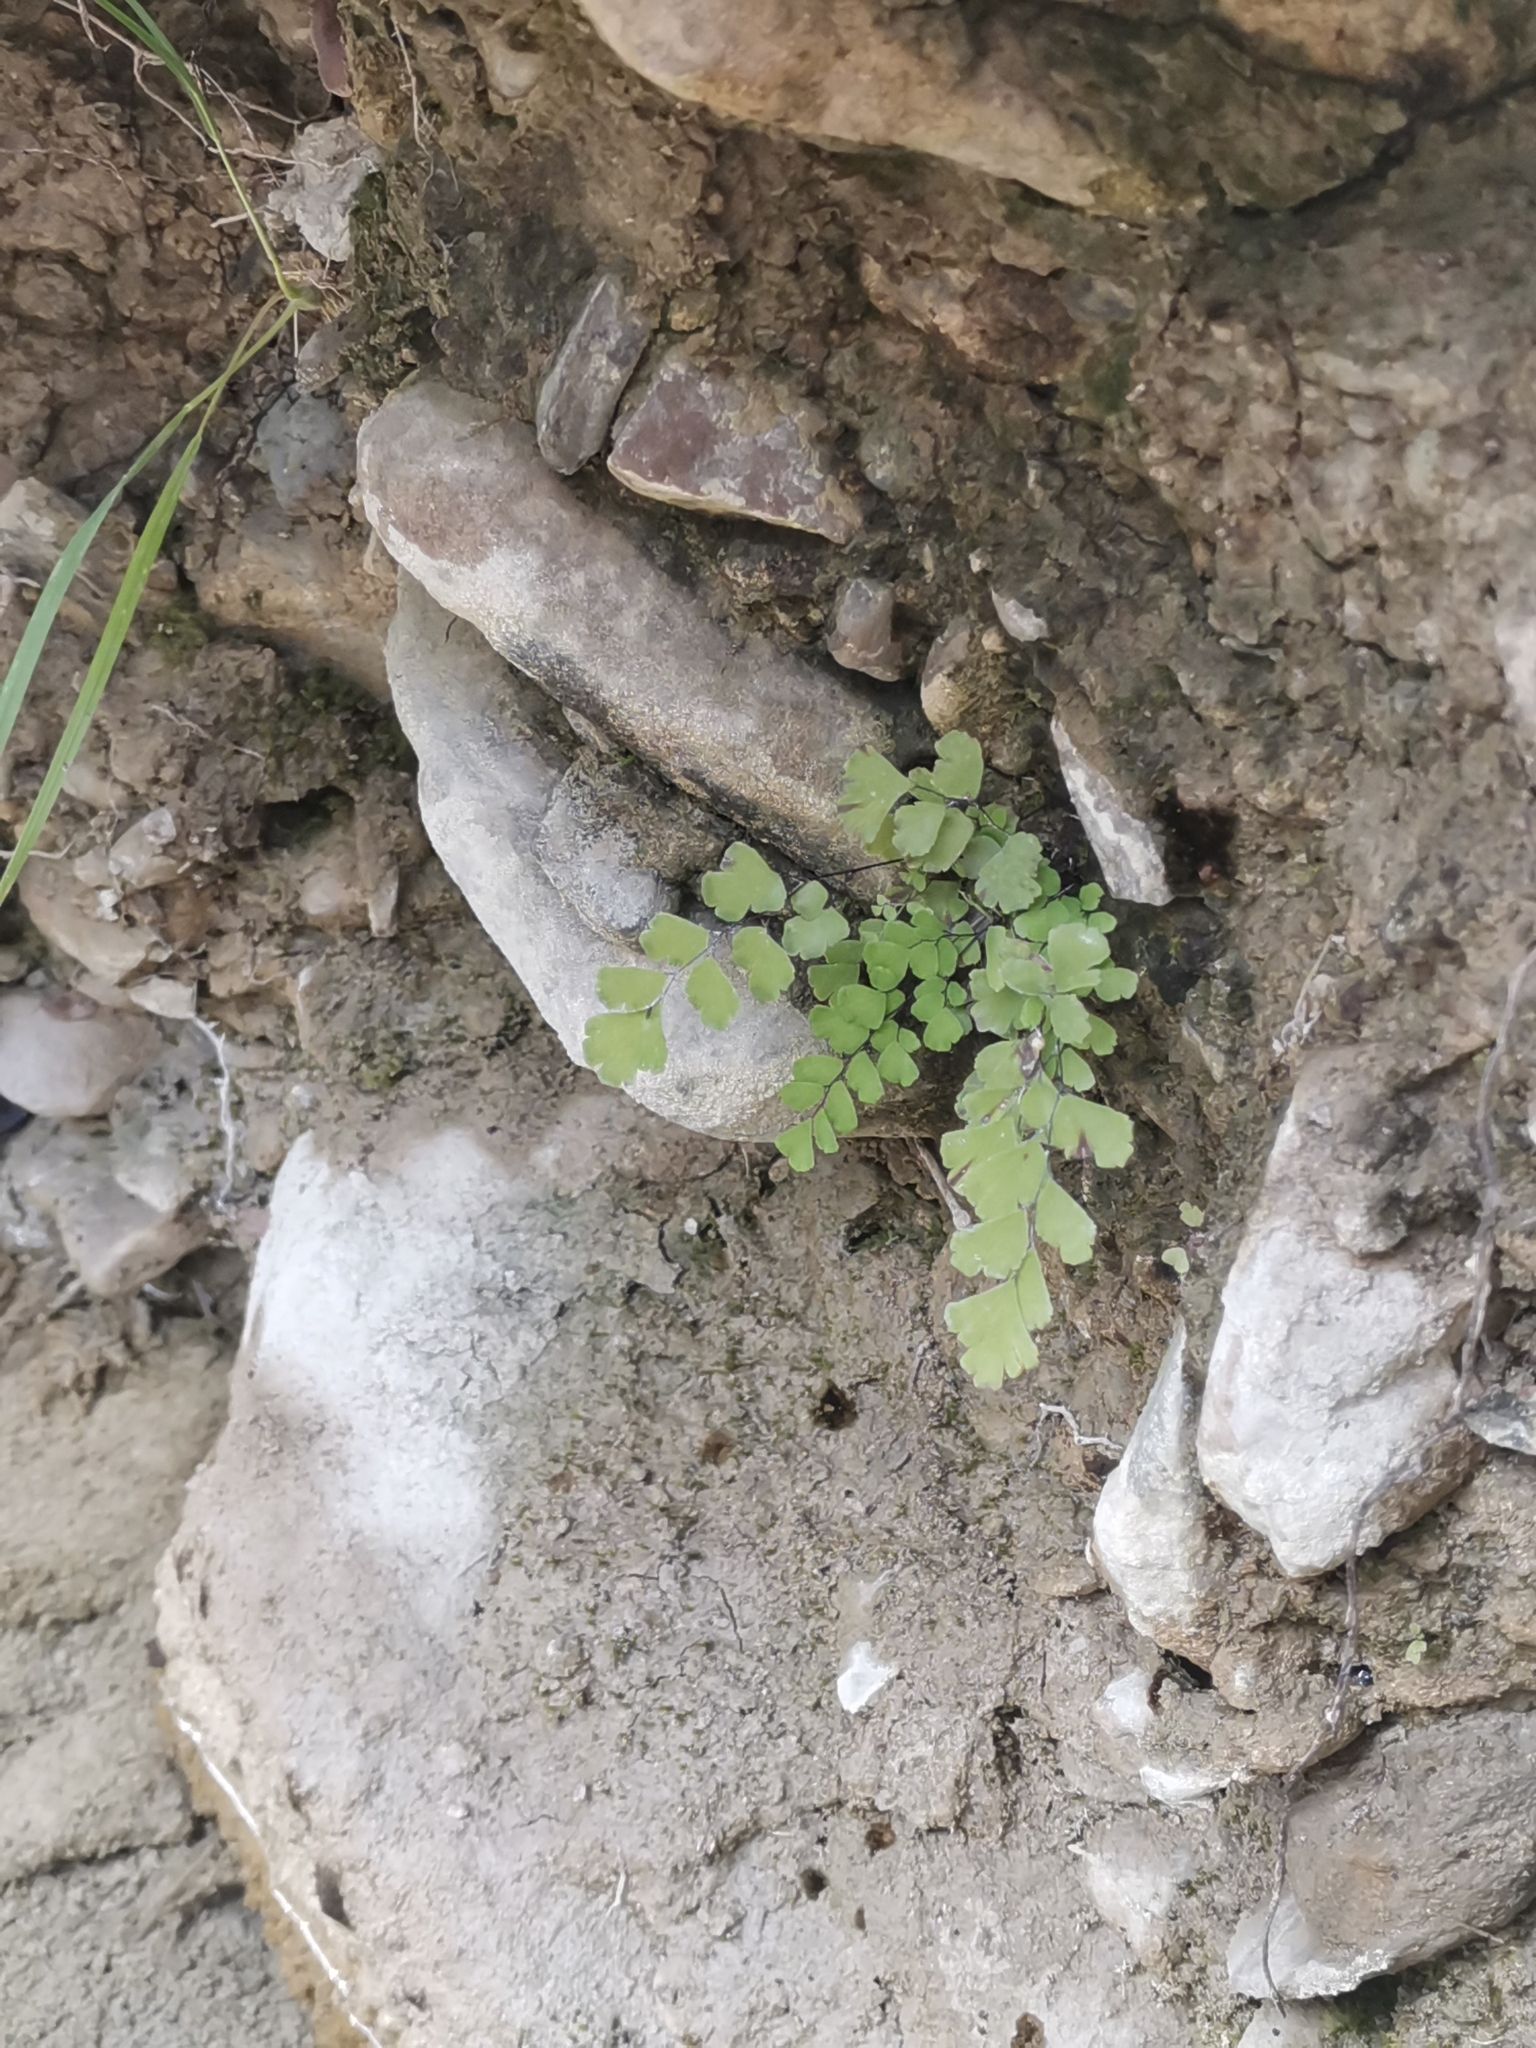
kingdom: Plantae
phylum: Tracheophyta
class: Polypodiopsida
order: Polypodiales
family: Pteridaceae
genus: Adiantum
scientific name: Adiantum capillus-veneris
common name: Maidenhair fern
